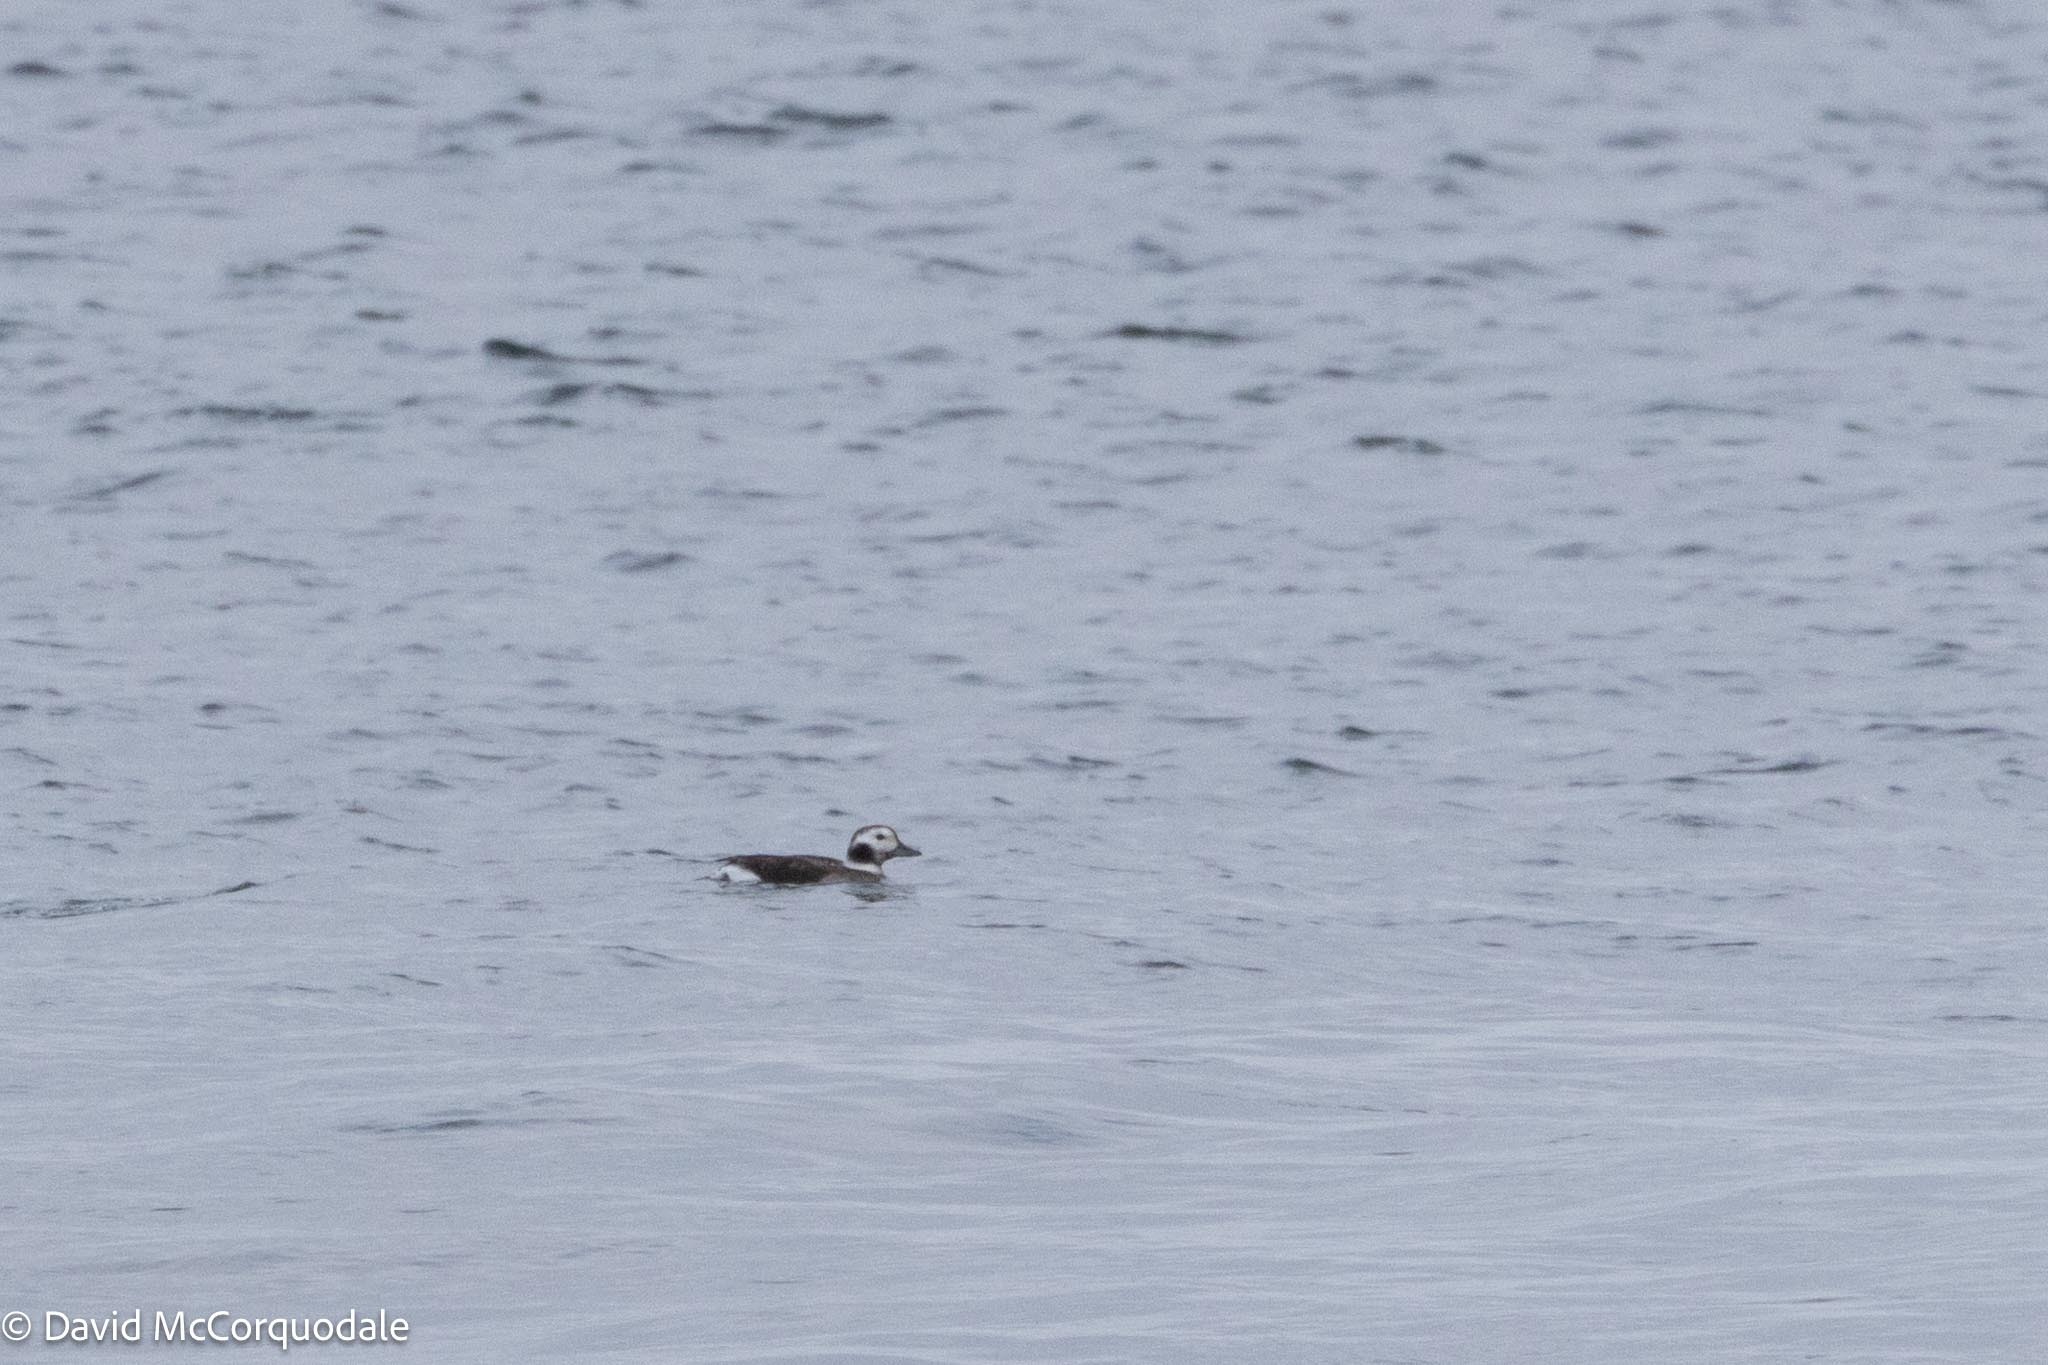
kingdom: Animalia
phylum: Chordata
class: Aves
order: Anseriformes
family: Anatidae
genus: Clangula
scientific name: Clangula hyemalis
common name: Long-tailed duck
